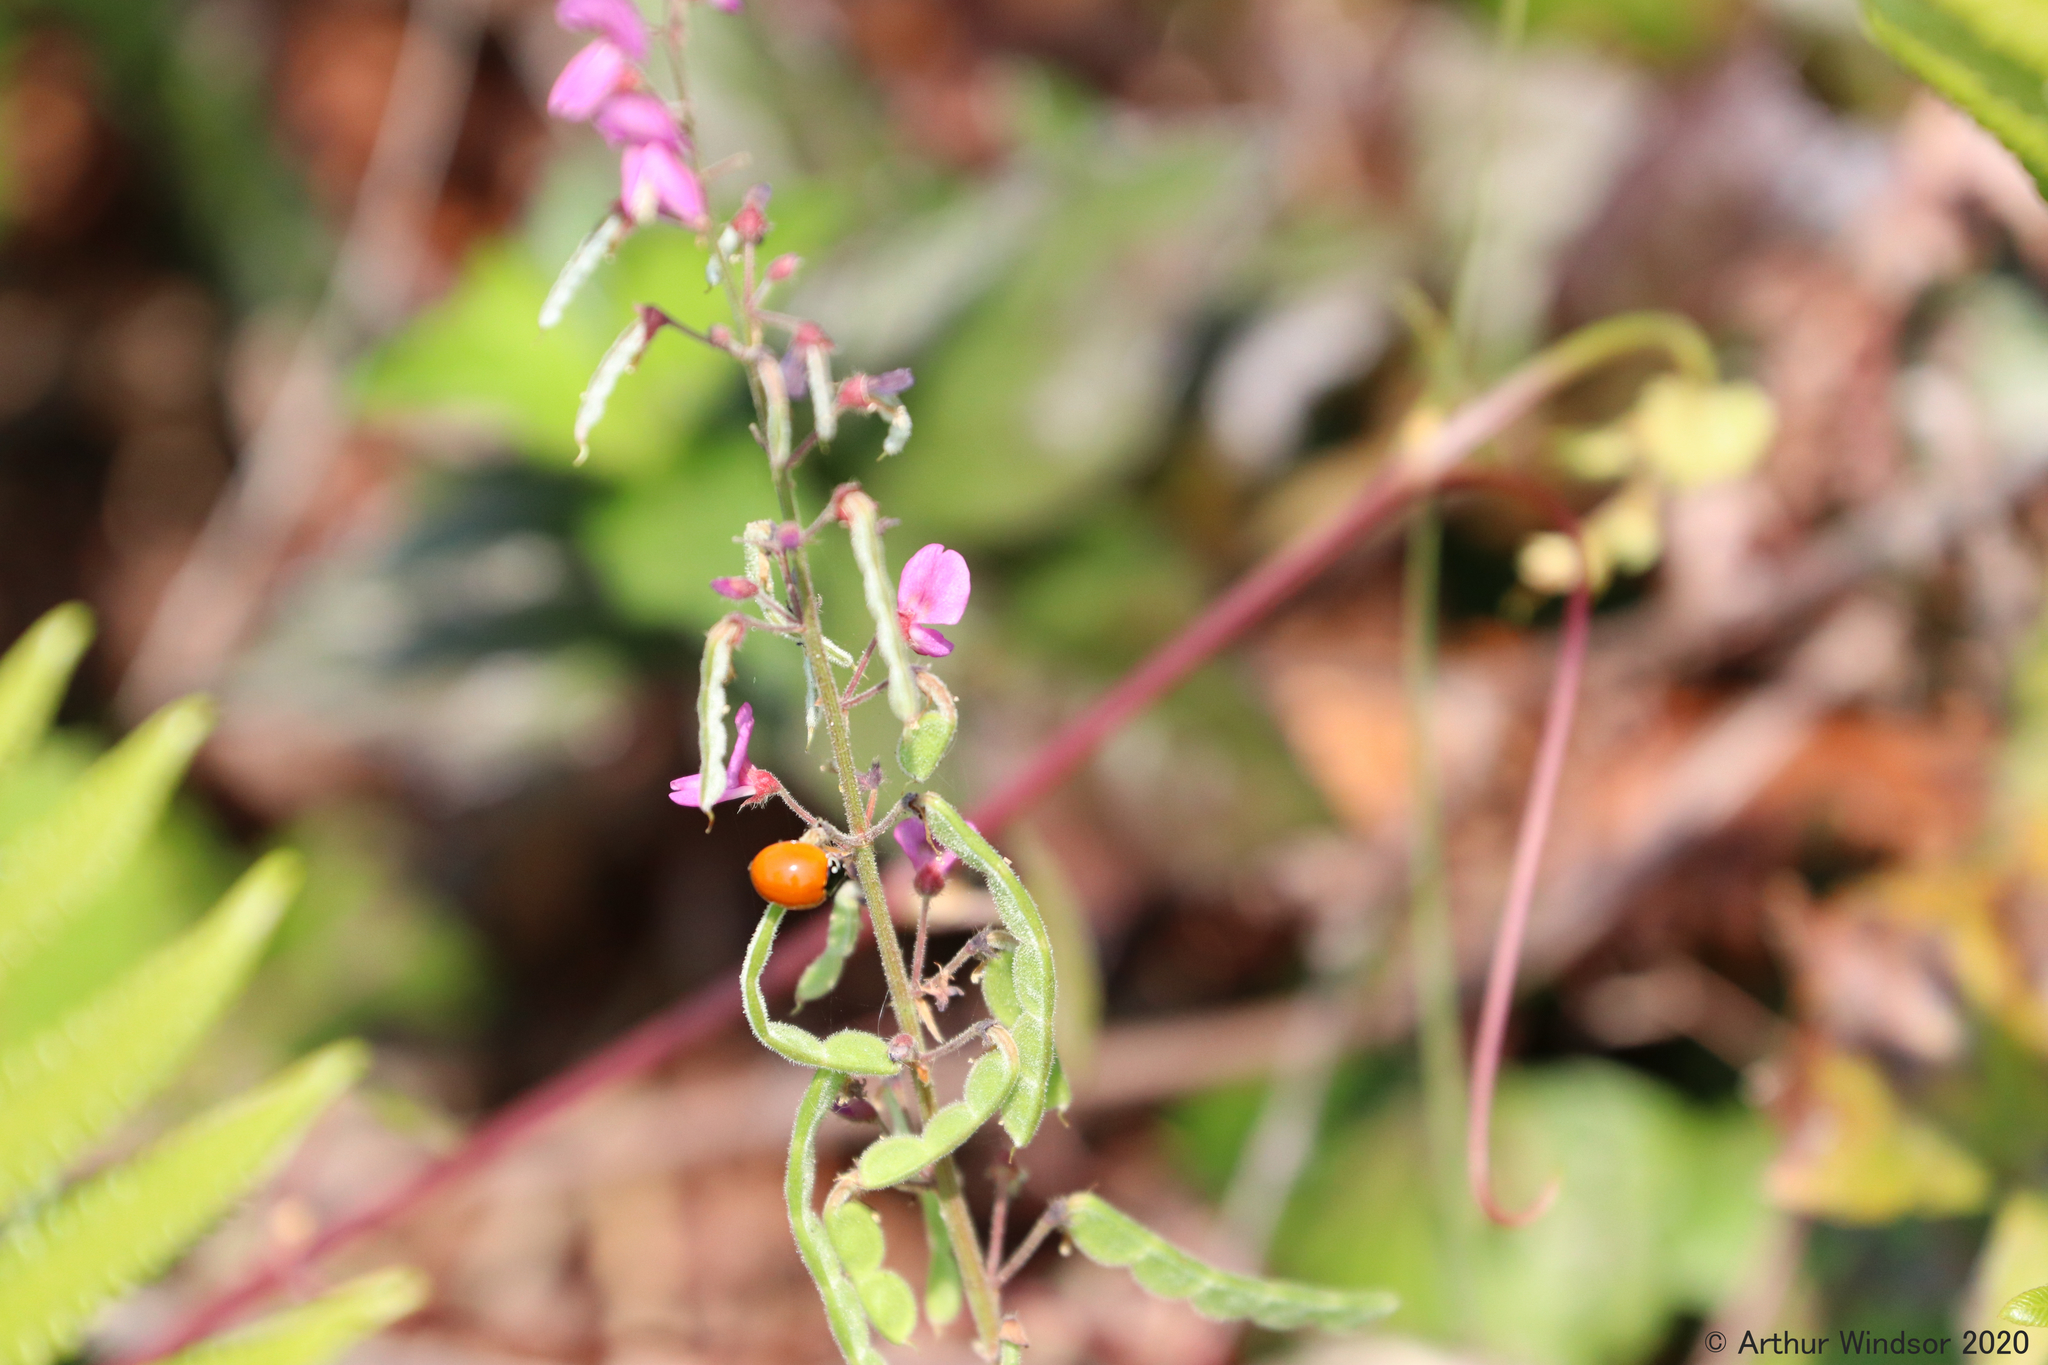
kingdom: Animalia
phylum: Arthropoda
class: Insecta
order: Coleoptera
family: Coccinellidae
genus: Cycloneda
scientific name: Cycloneda sanguinea
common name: Ladybird beetle
